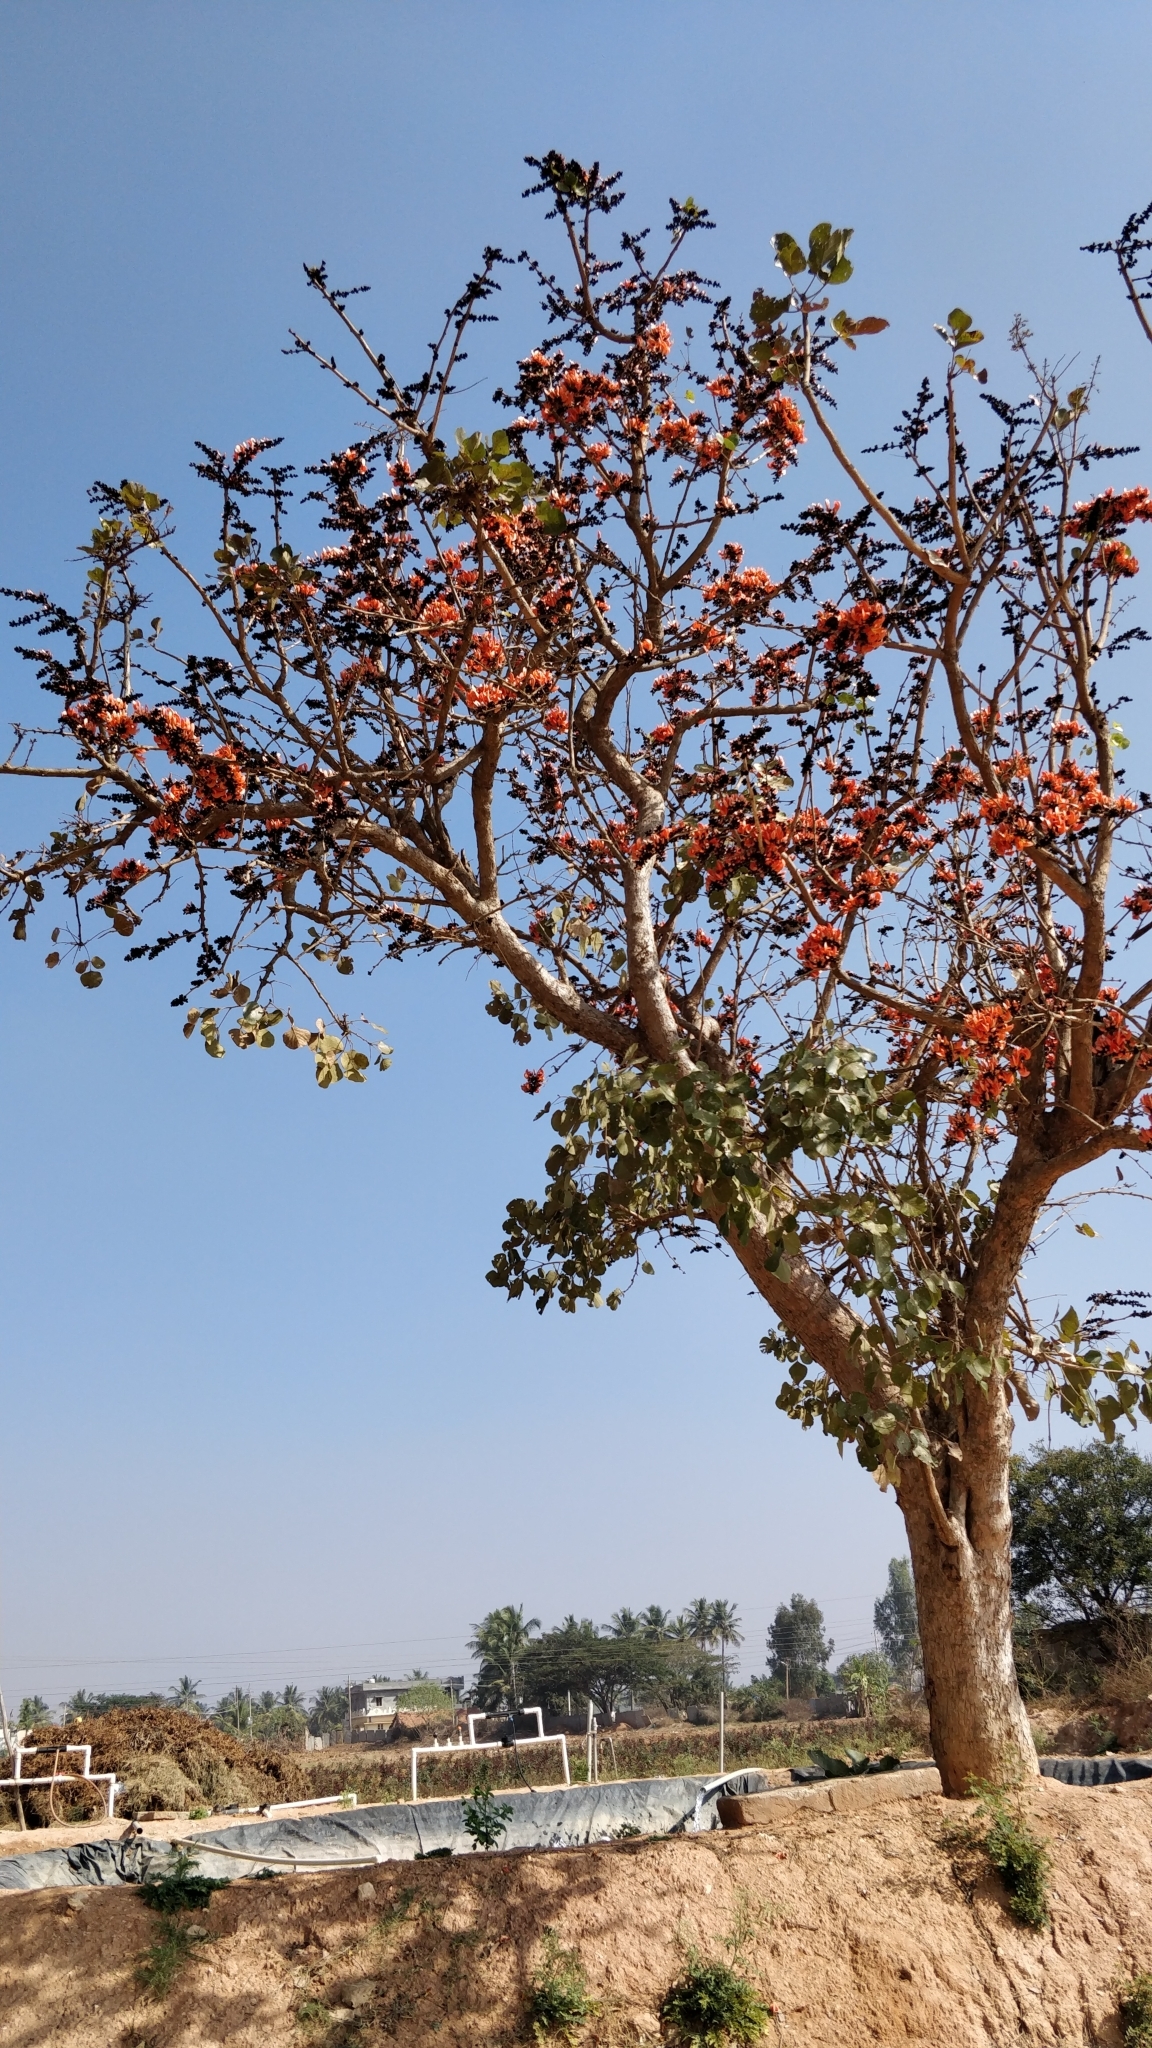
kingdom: Plantae
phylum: Tracheophyta
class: Magnoliopsida
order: Fabales
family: Fabaceae
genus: Butea
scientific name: Butea monosperma
